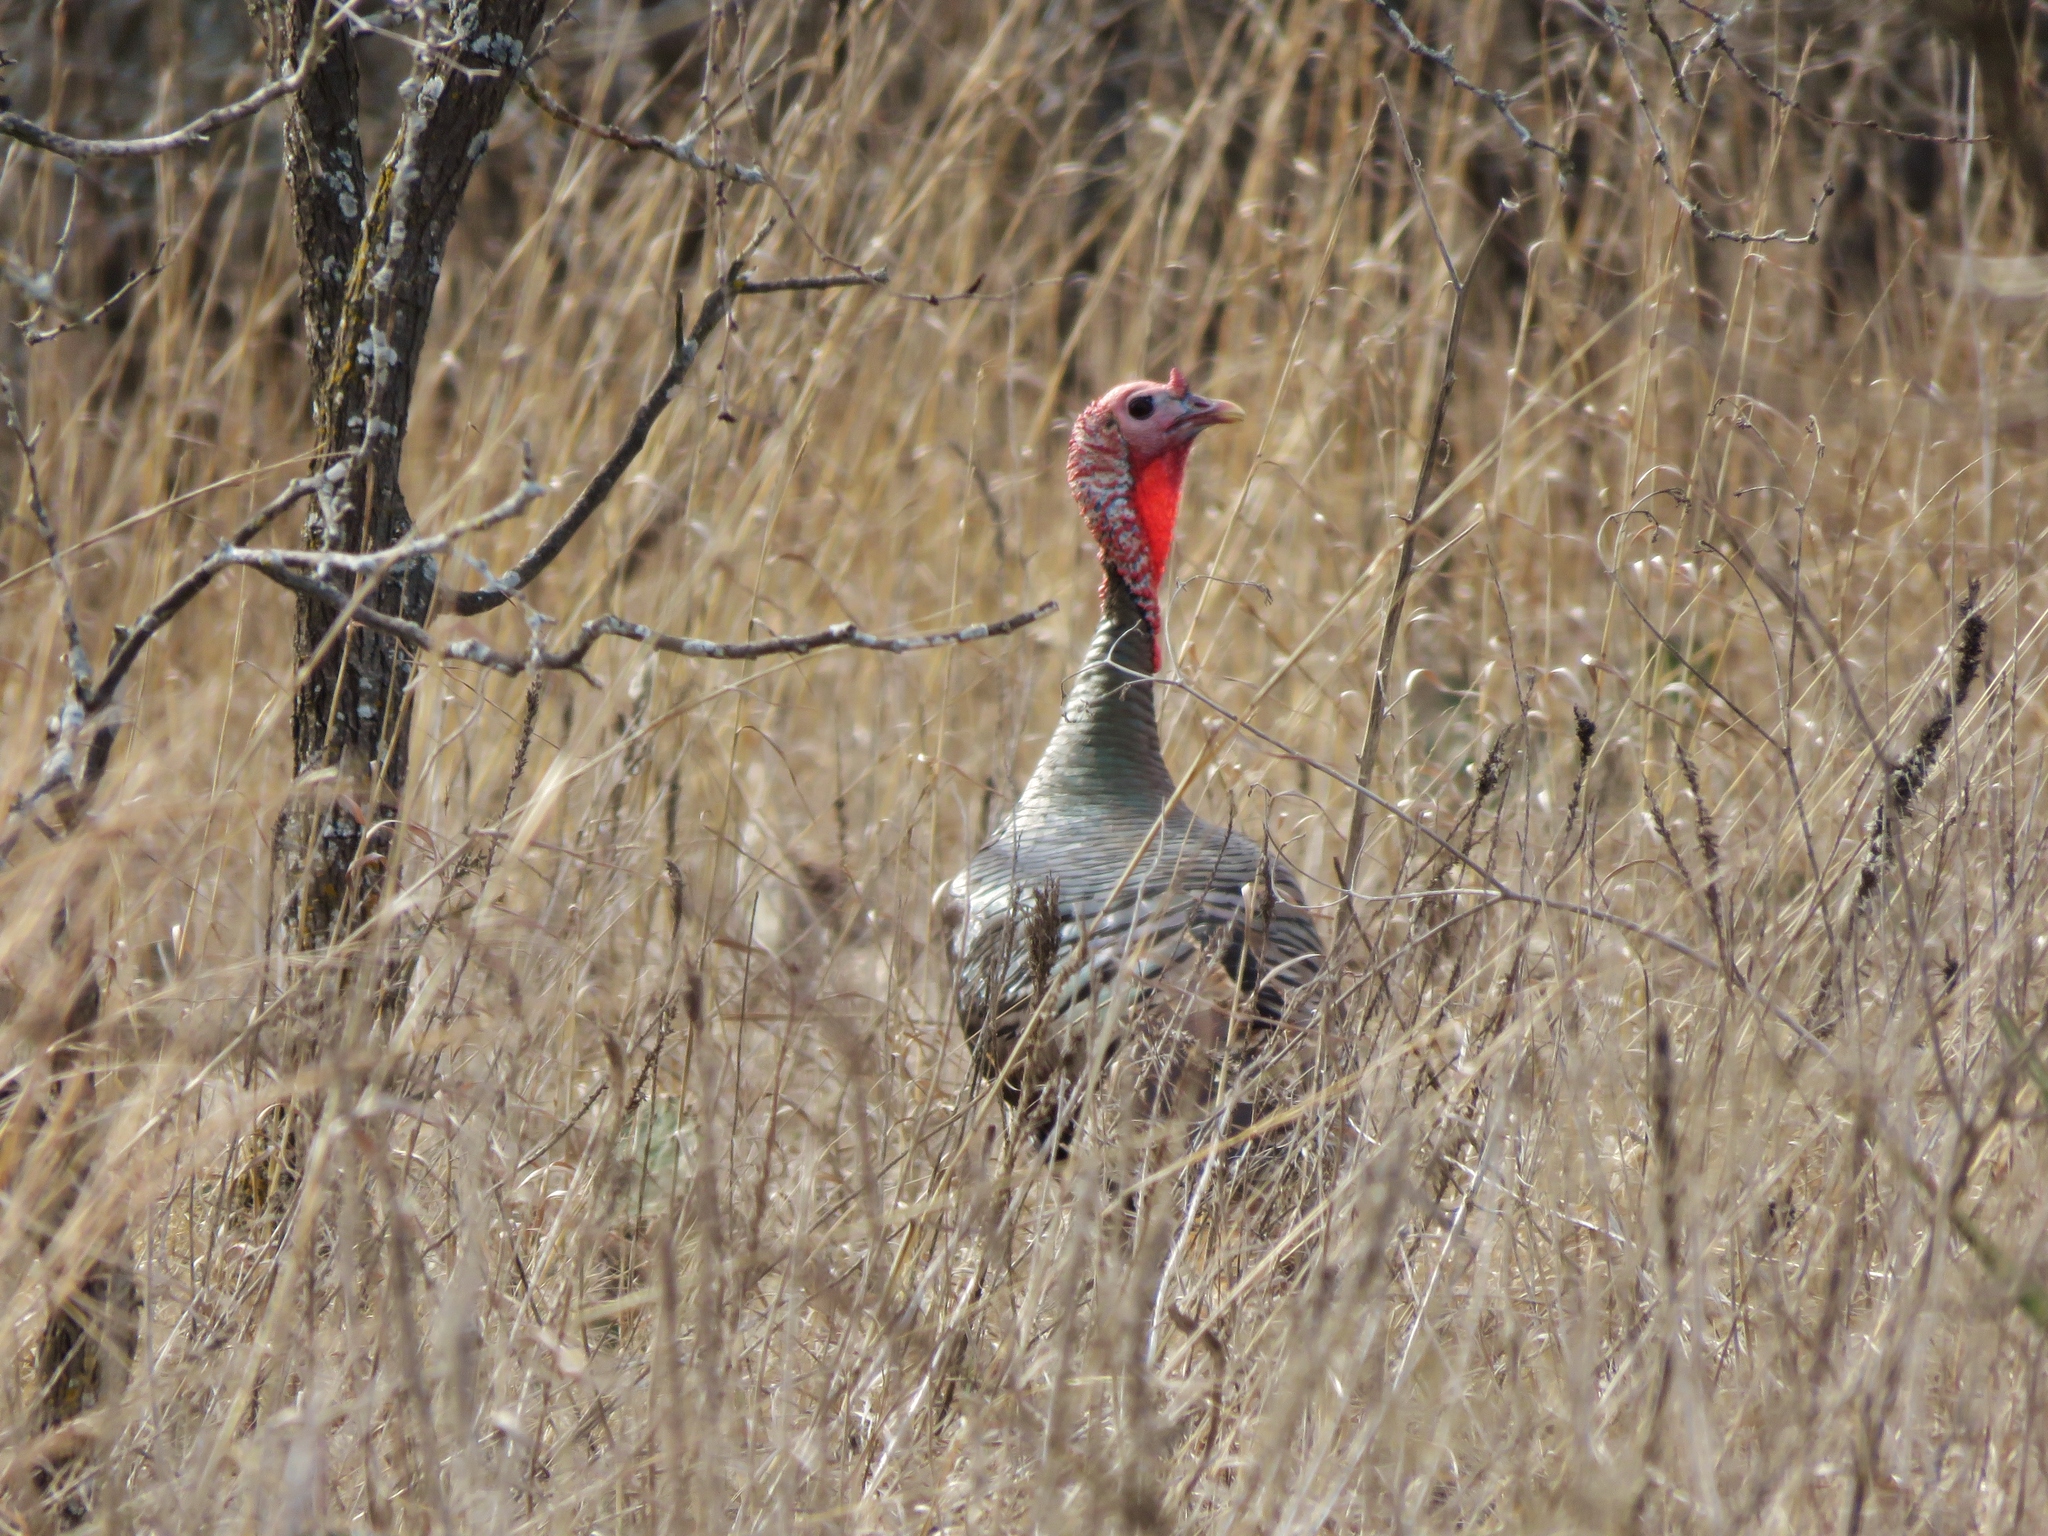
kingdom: Animalia
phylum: Chordata
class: Aves
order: Galliformes
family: Phasianidae
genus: Meleagris
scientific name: Meleagris gallopavo
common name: Wild turkey
